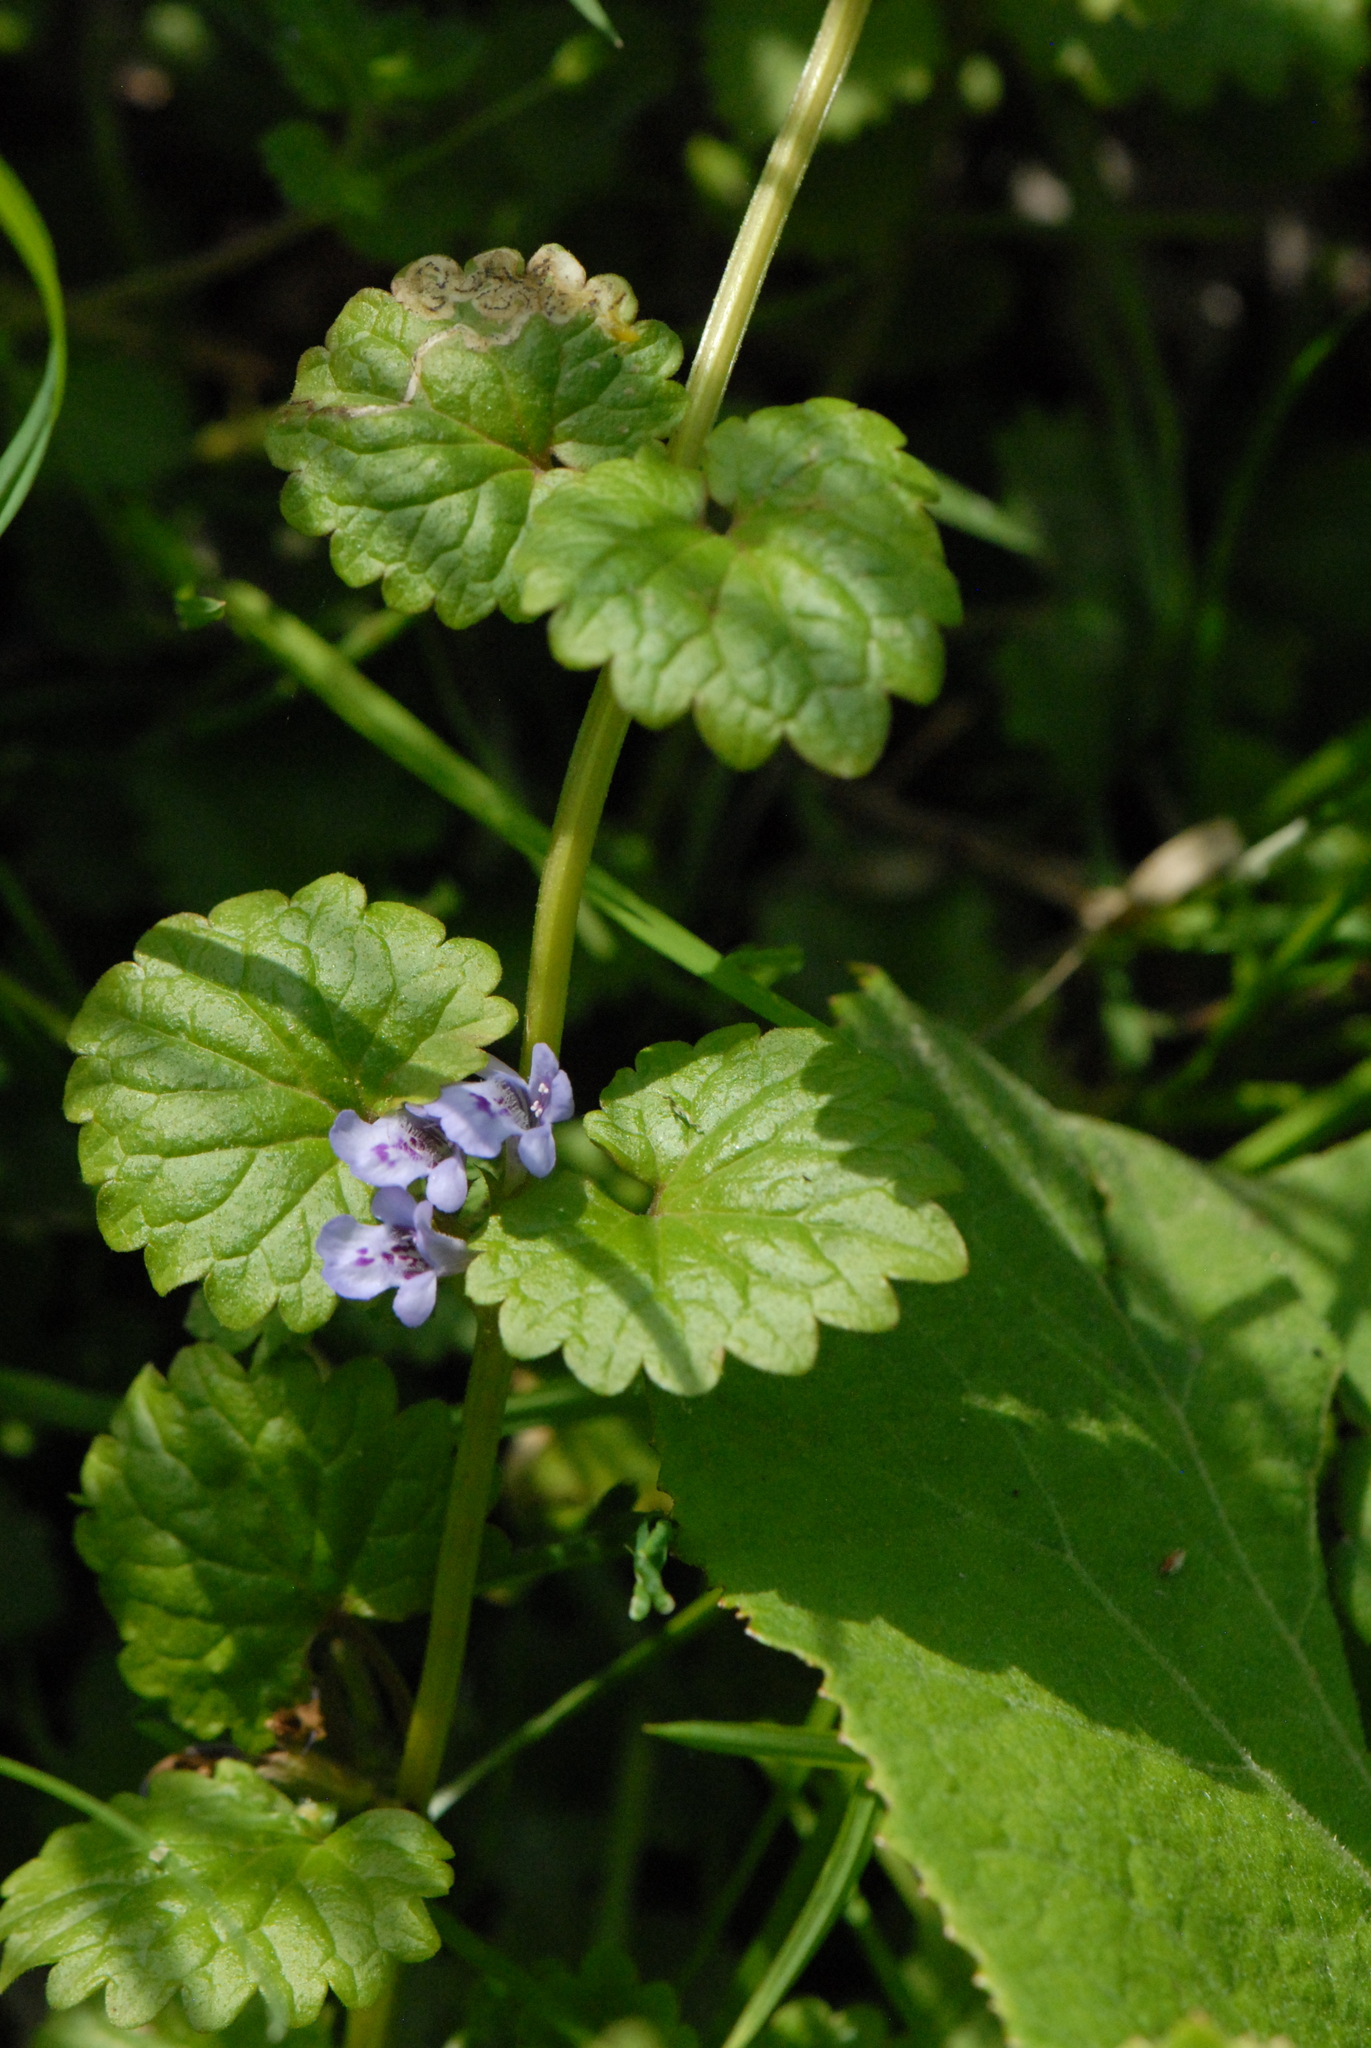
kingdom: Plantae
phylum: Tracheophyta
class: Magnoliopsida
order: Lamiales
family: Lamiaceae
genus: Glechoma
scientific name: Glechoma hederacea
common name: Ground ivy
